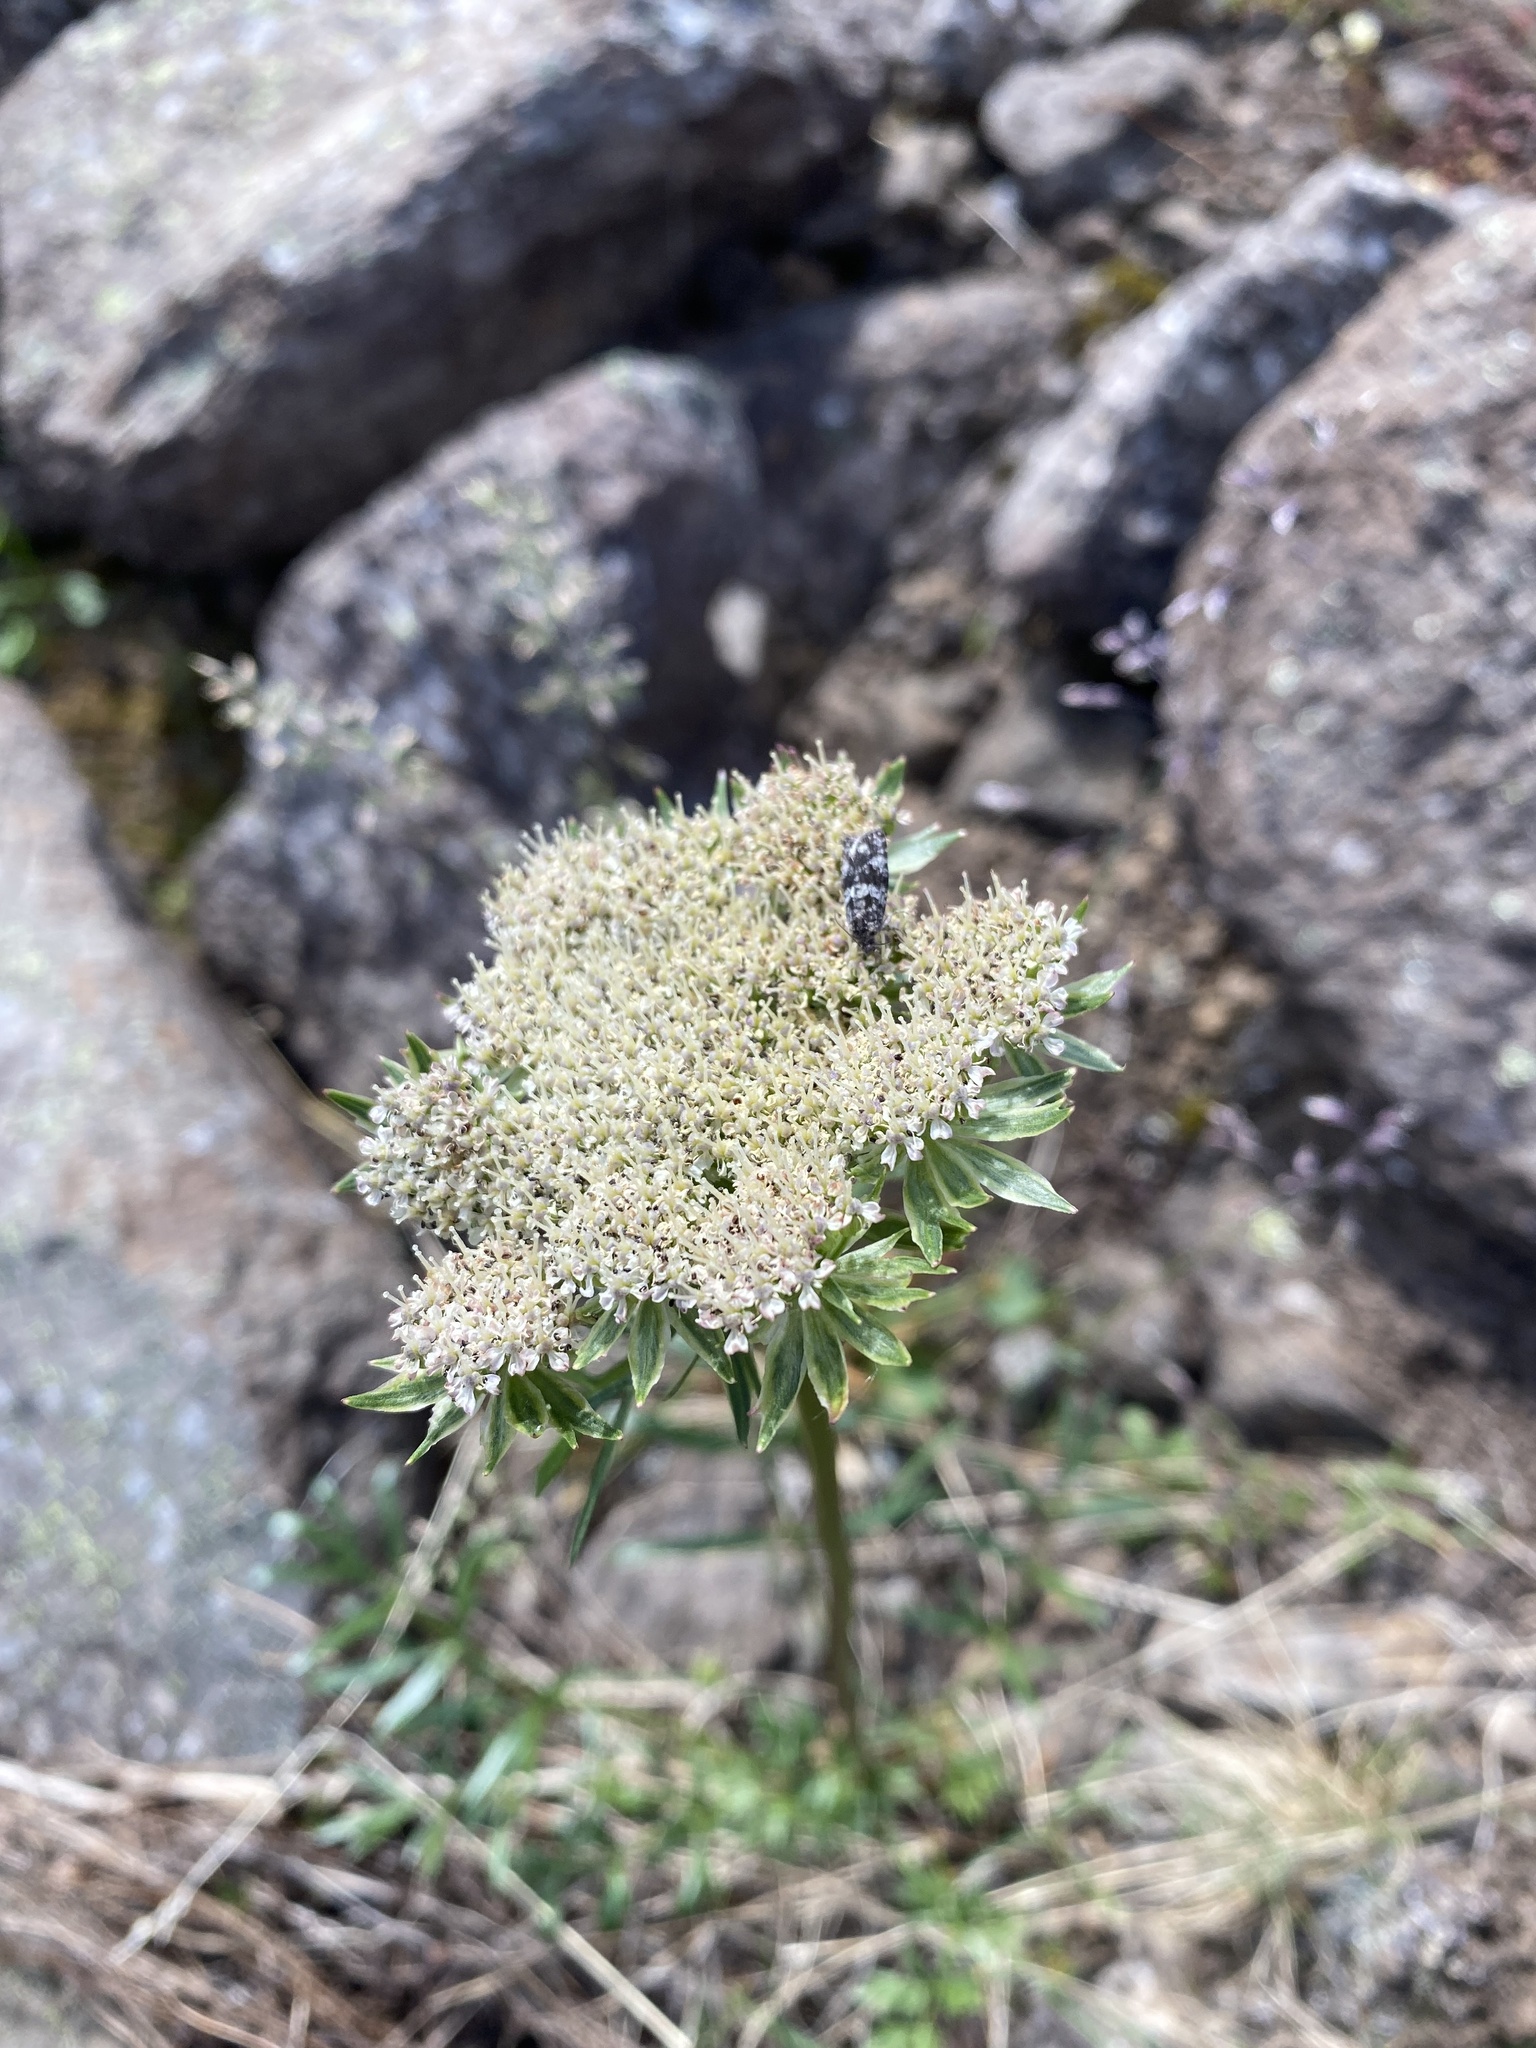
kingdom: Plantae
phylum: Tracheophyta
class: Magnoliopsida
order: Apiales
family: Apiaceae
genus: Pachypleurum
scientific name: Pachypleurum mutellinoides
